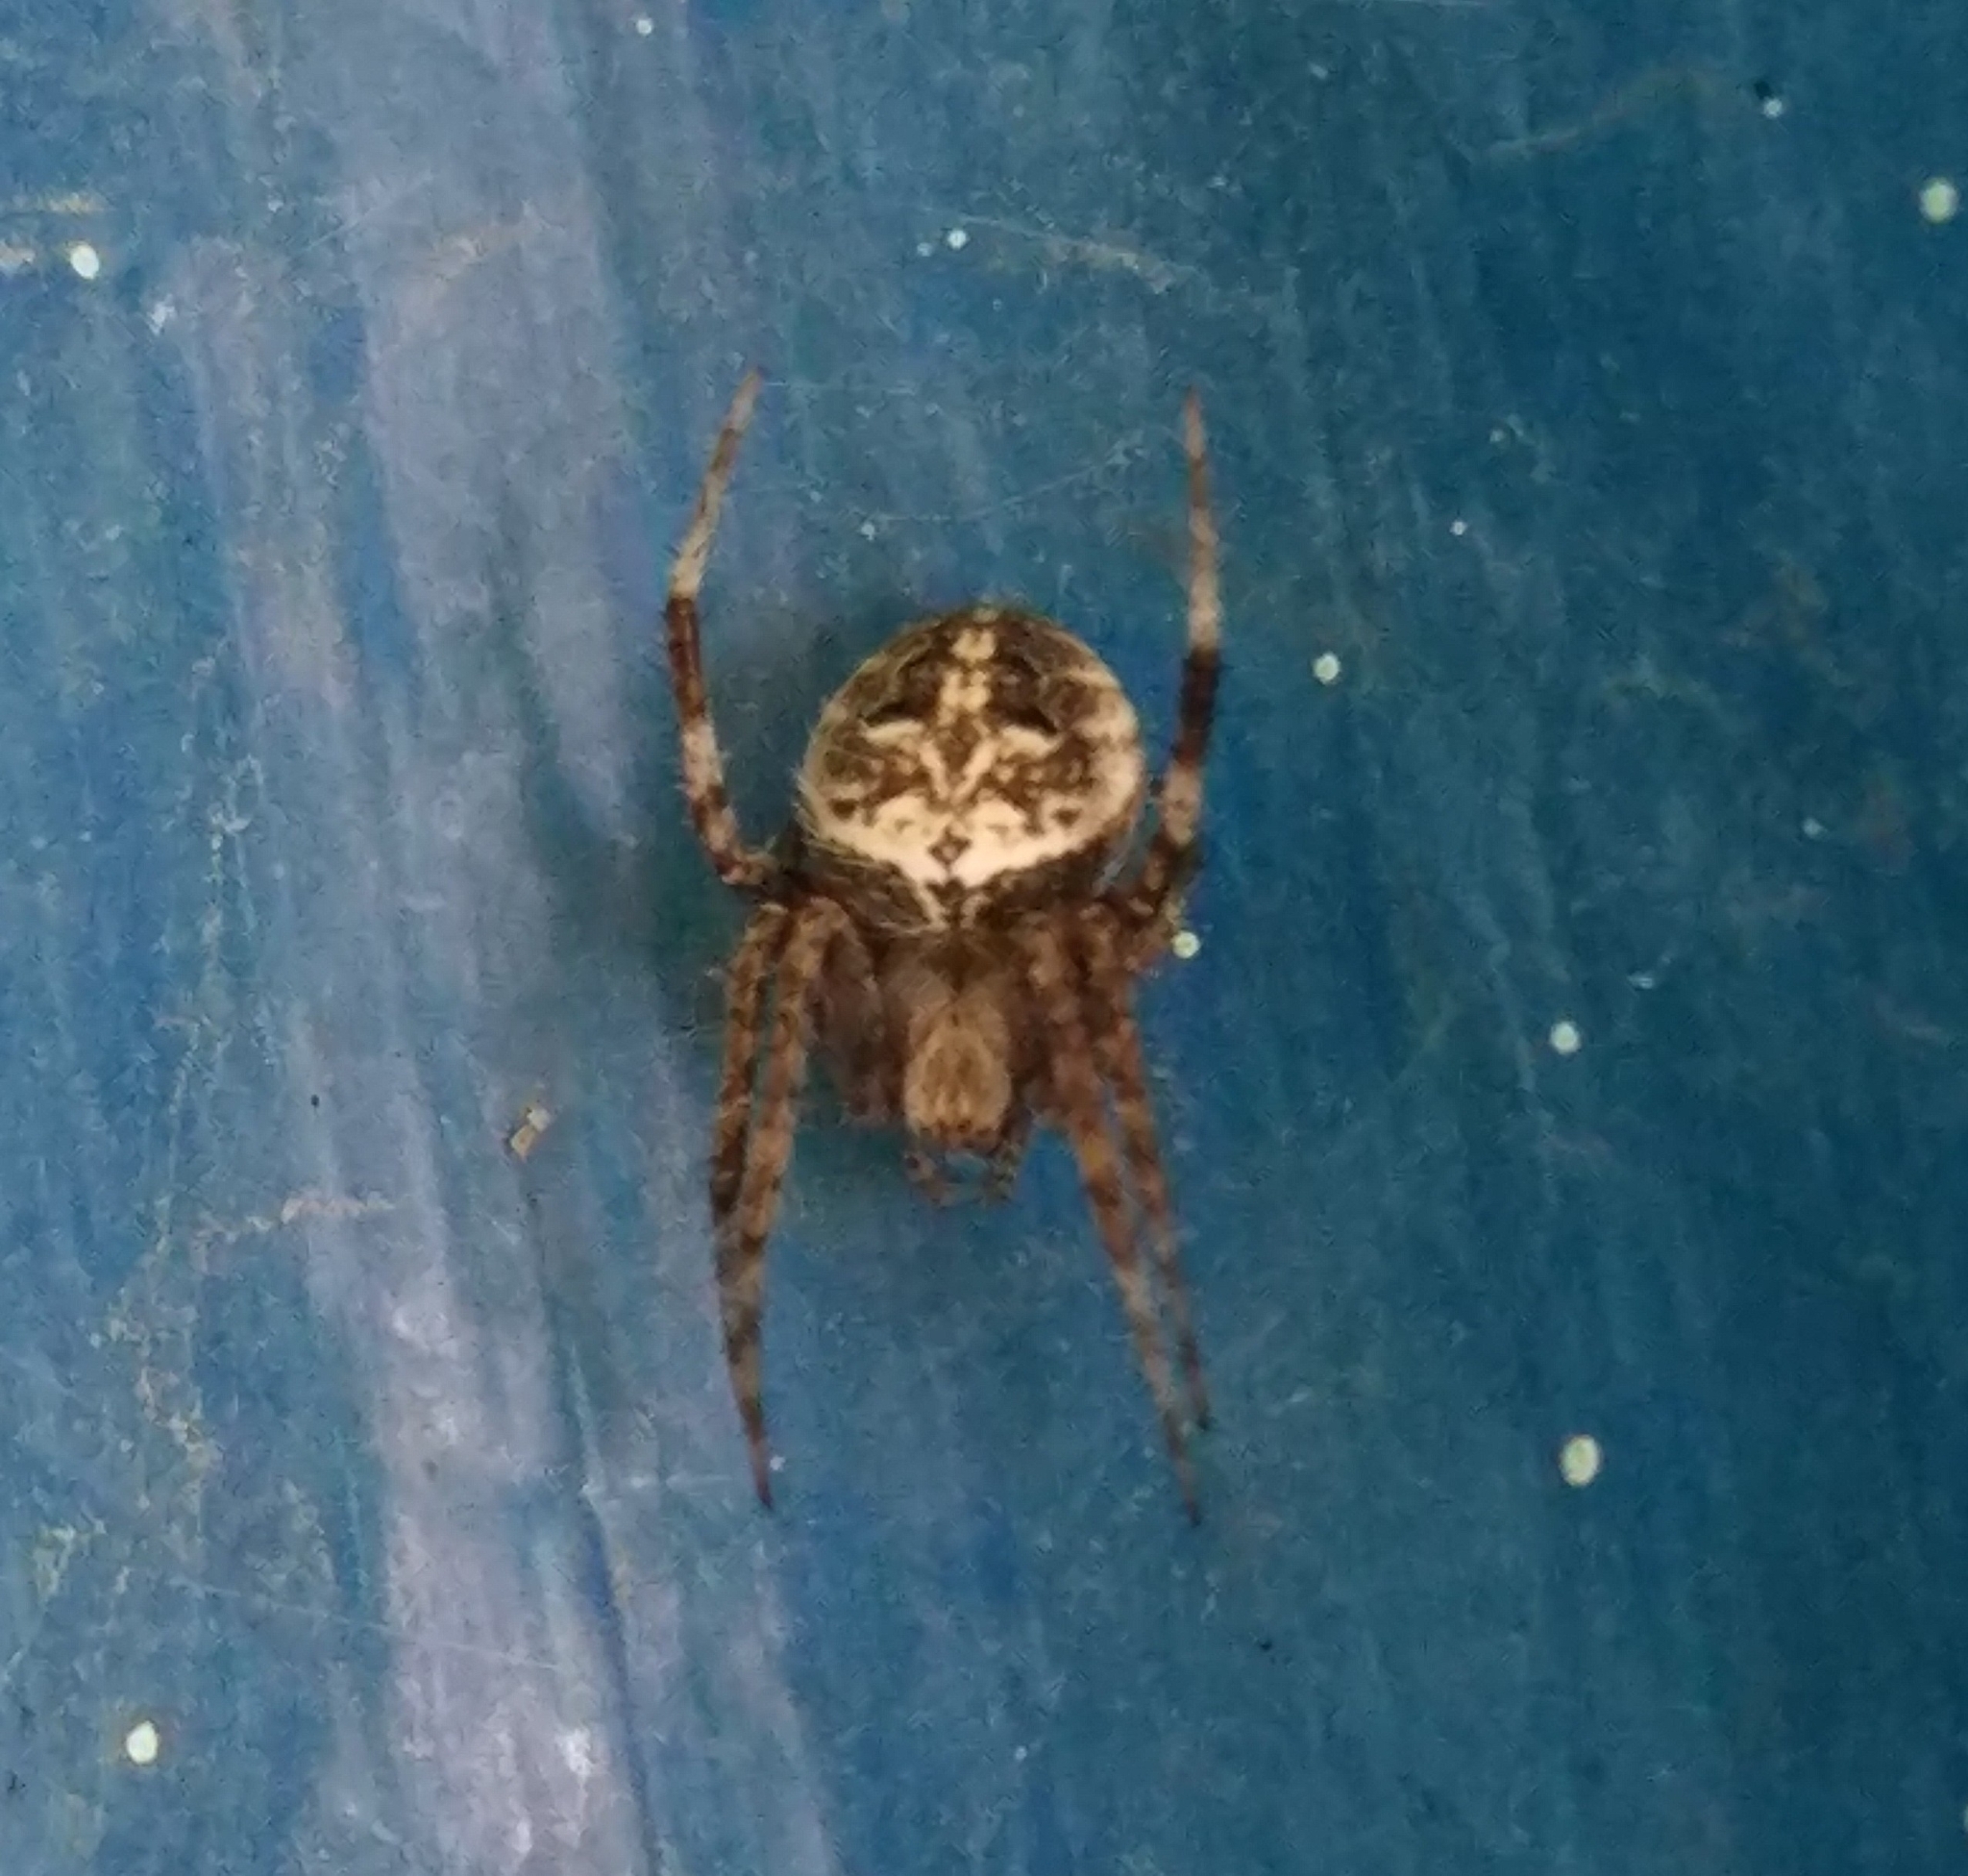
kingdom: Animalia
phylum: Arthropoda
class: Arachnida
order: Araneae
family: Araneidae
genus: Neoscona
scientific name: Neoscona spasskyi
